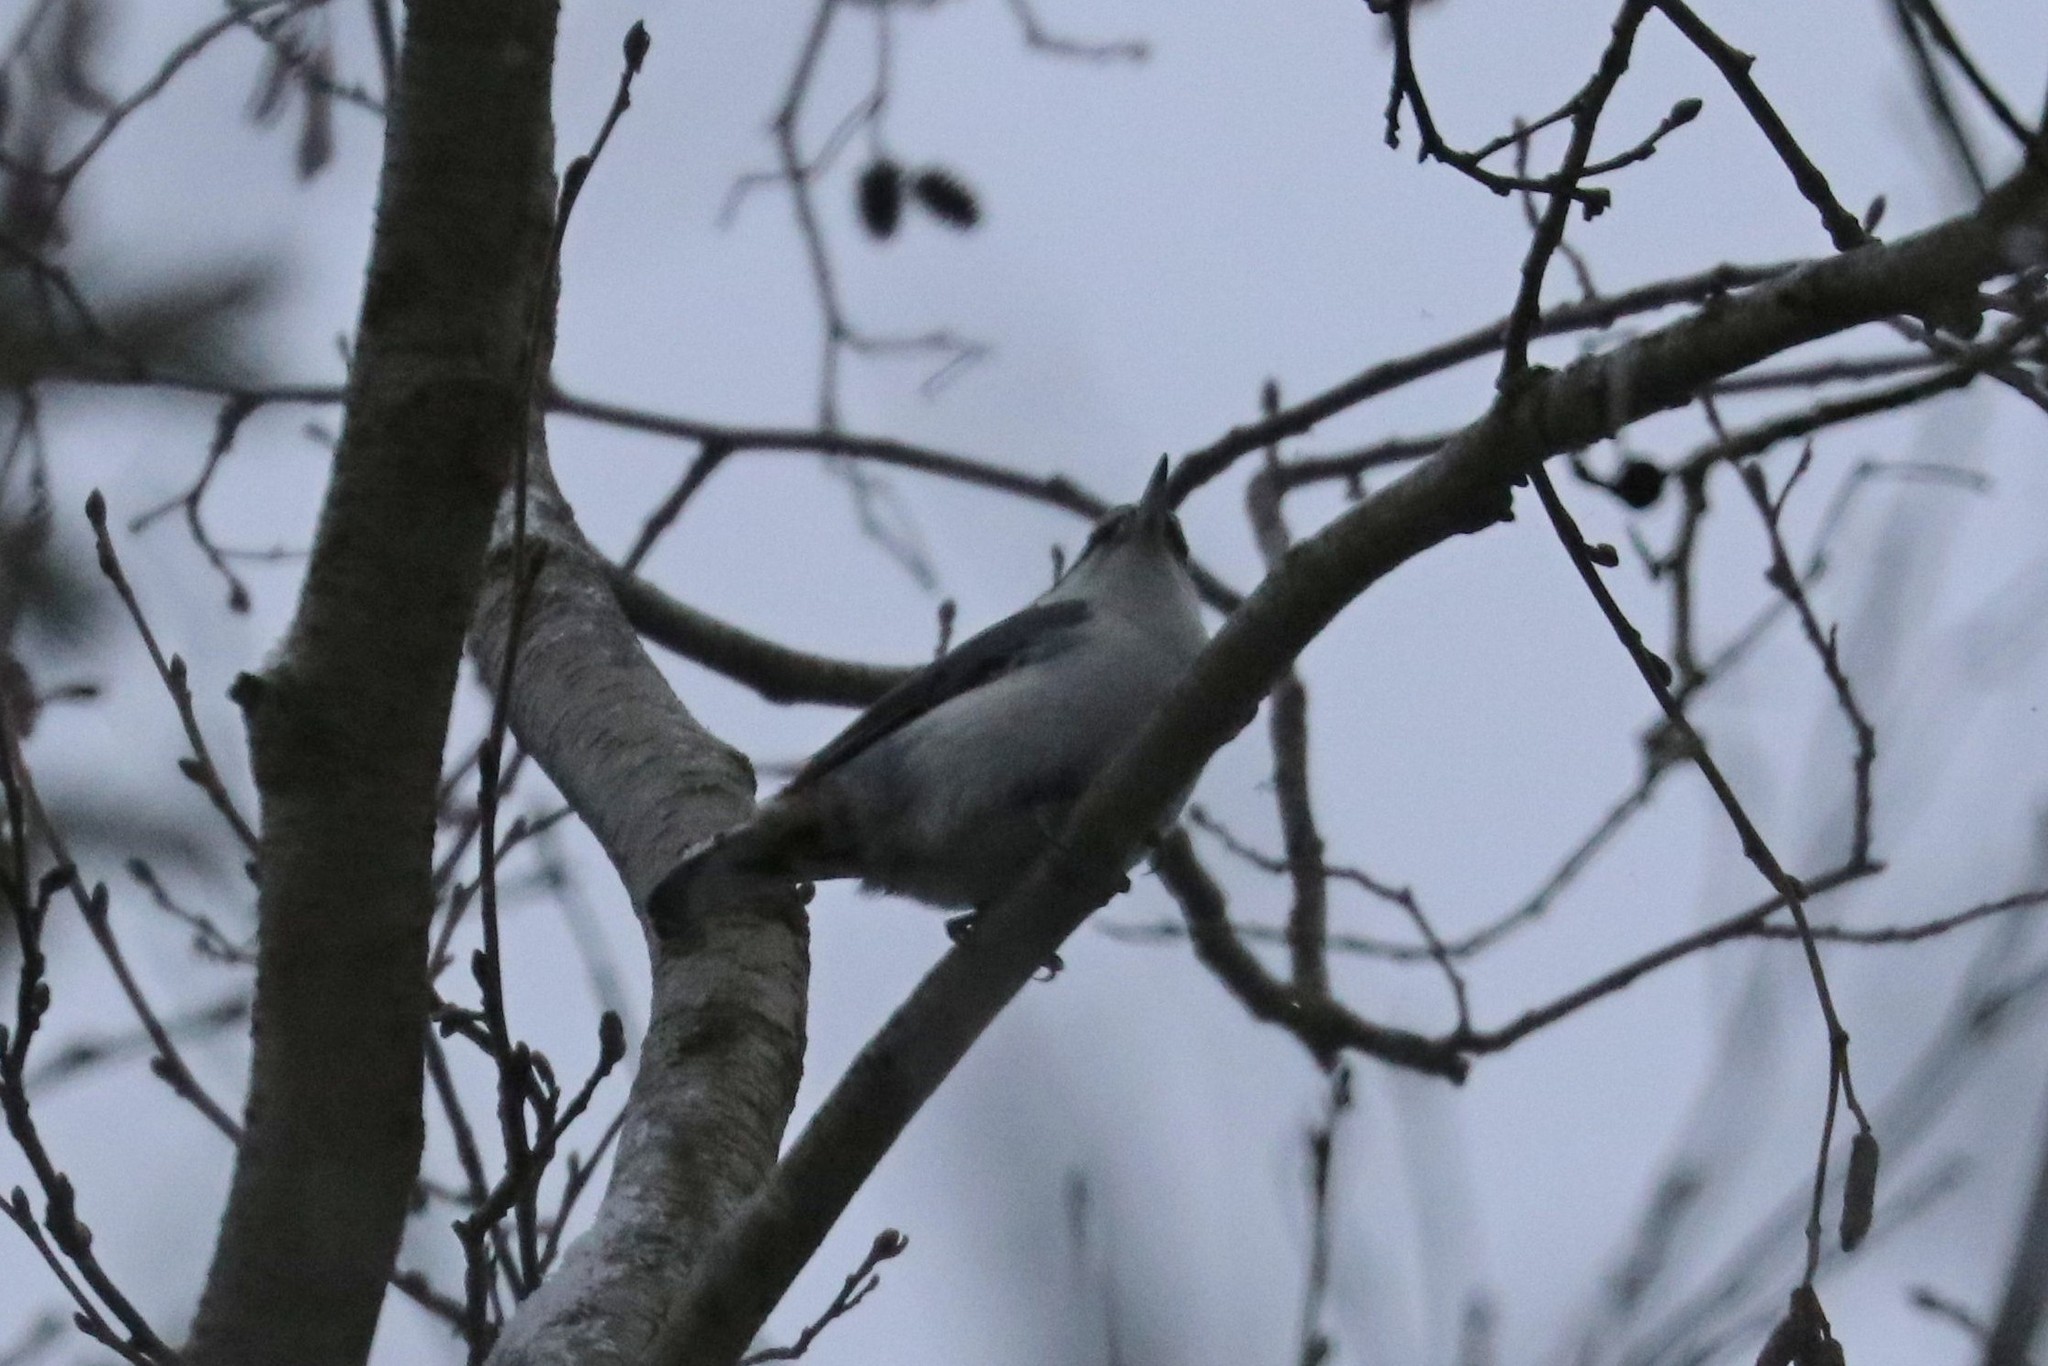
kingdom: Animalia
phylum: Chordata
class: Aves
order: Passeriformes
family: Sittidae
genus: Sitta
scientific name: Sitta europaea
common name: Eurasian nuthatch
